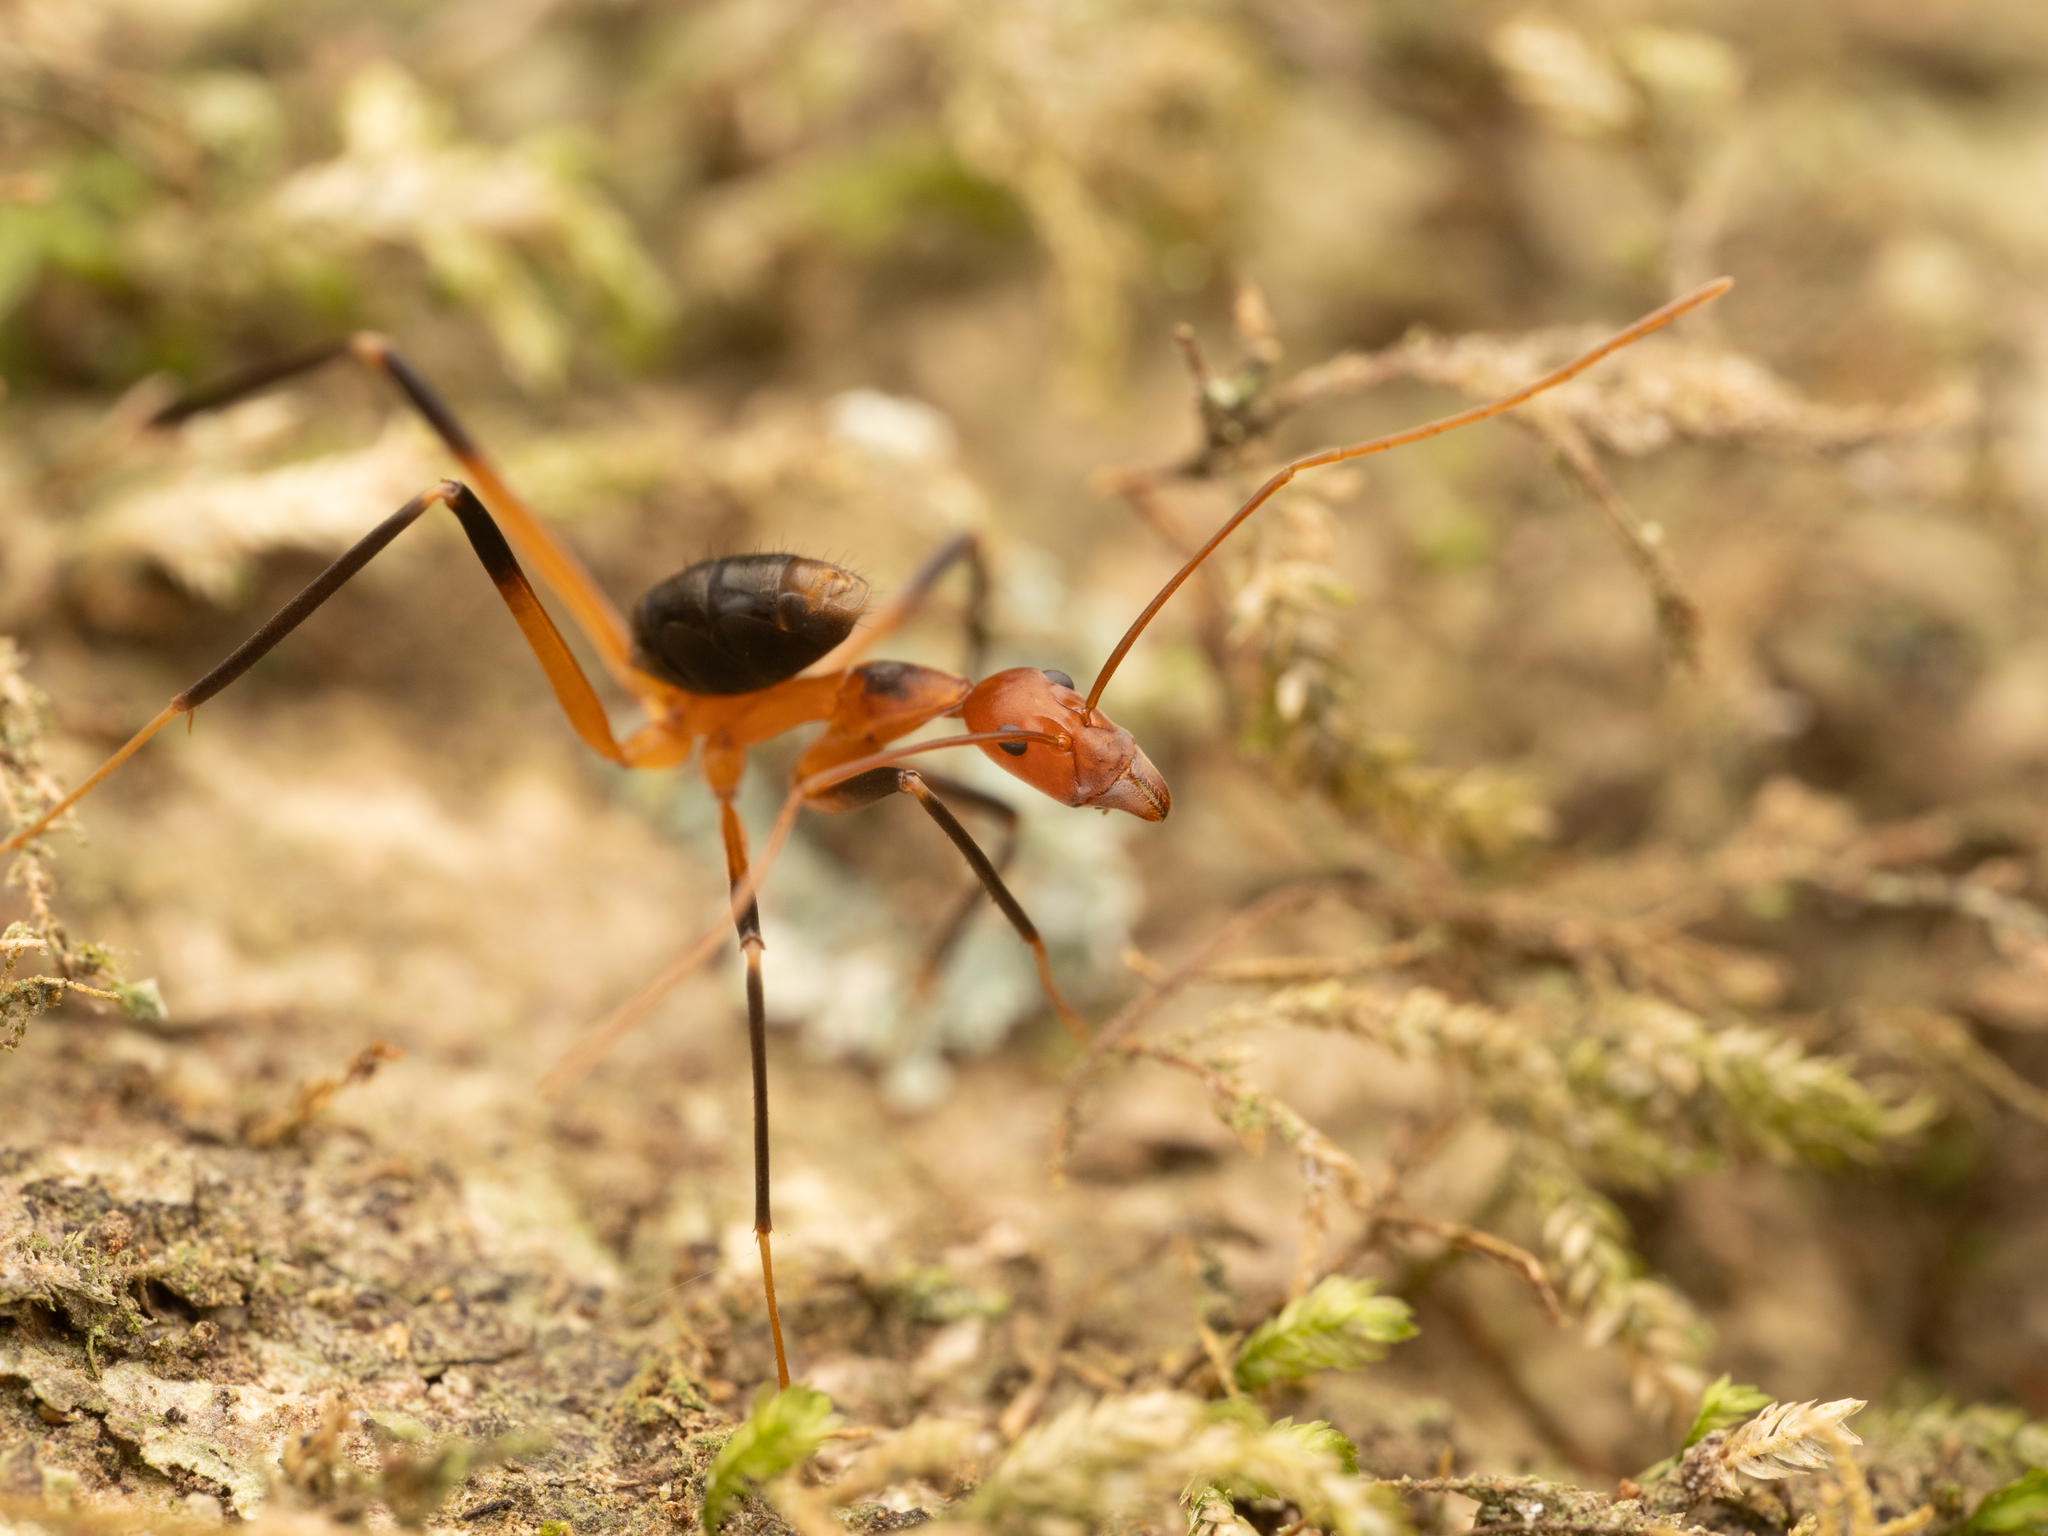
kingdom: Animalia
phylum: Arthropoda
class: Insecta
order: Hymenoptera
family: Formicidae
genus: Leptomyrmex
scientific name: Leptomyrmex cnemidatus
